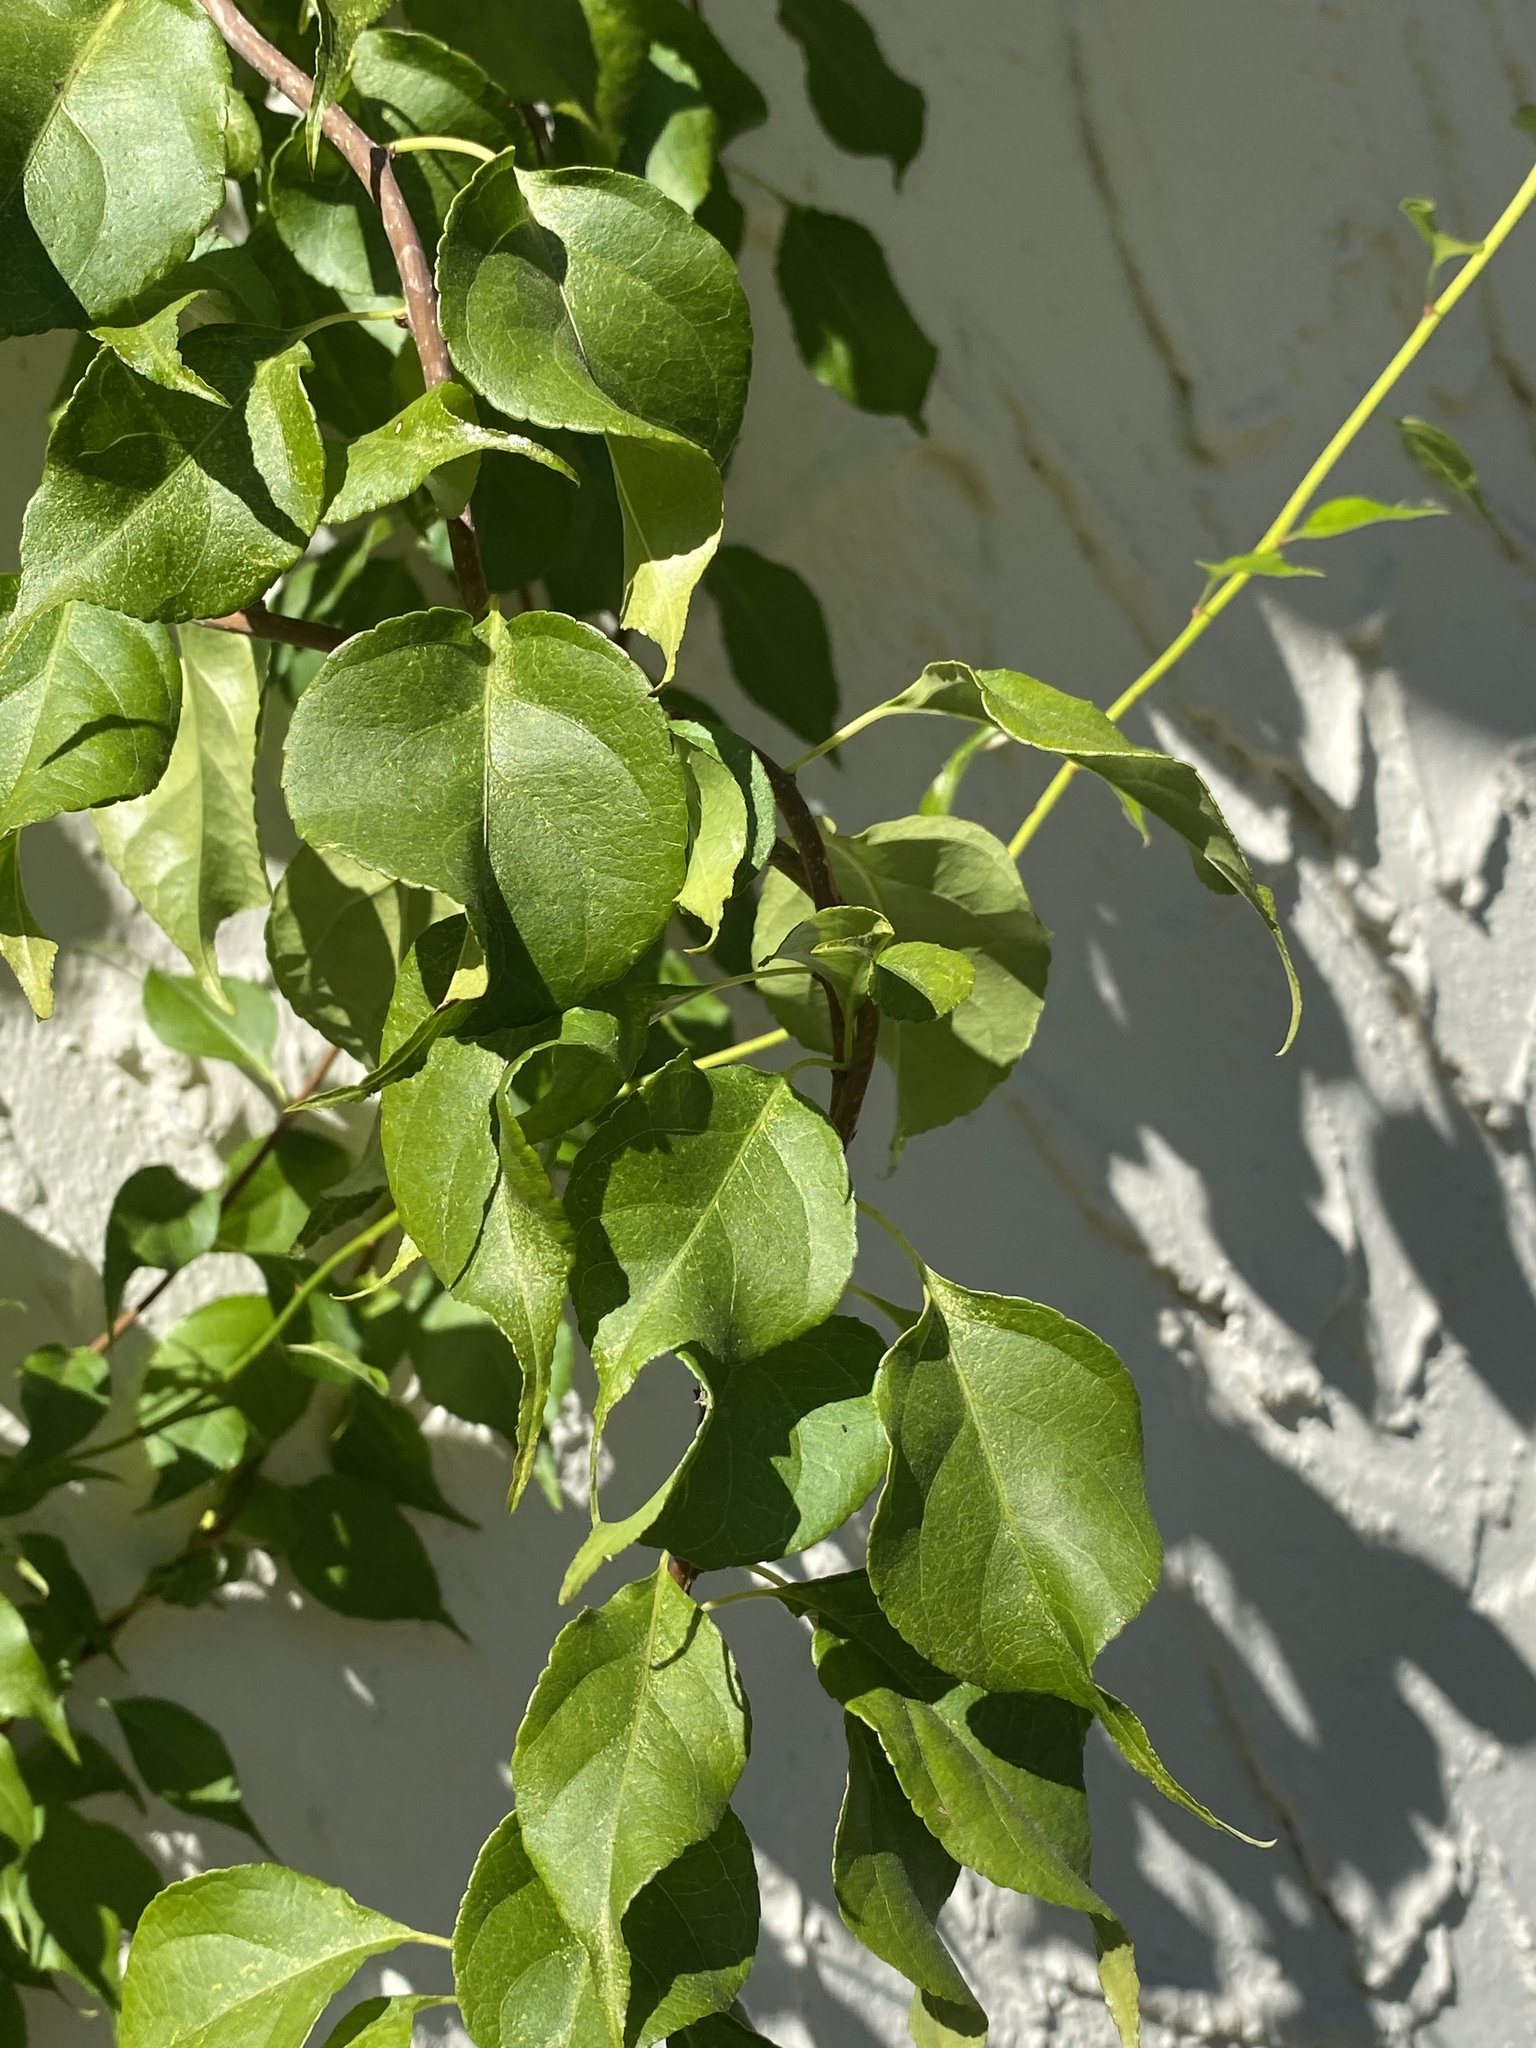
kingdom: Plantae
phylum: Tracheophyta
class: Magnoliopsida
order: Celastrales
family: Celastraceae
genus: Celastrus
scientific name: Celastrus orbiculatus
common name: Oriental bittersweet
